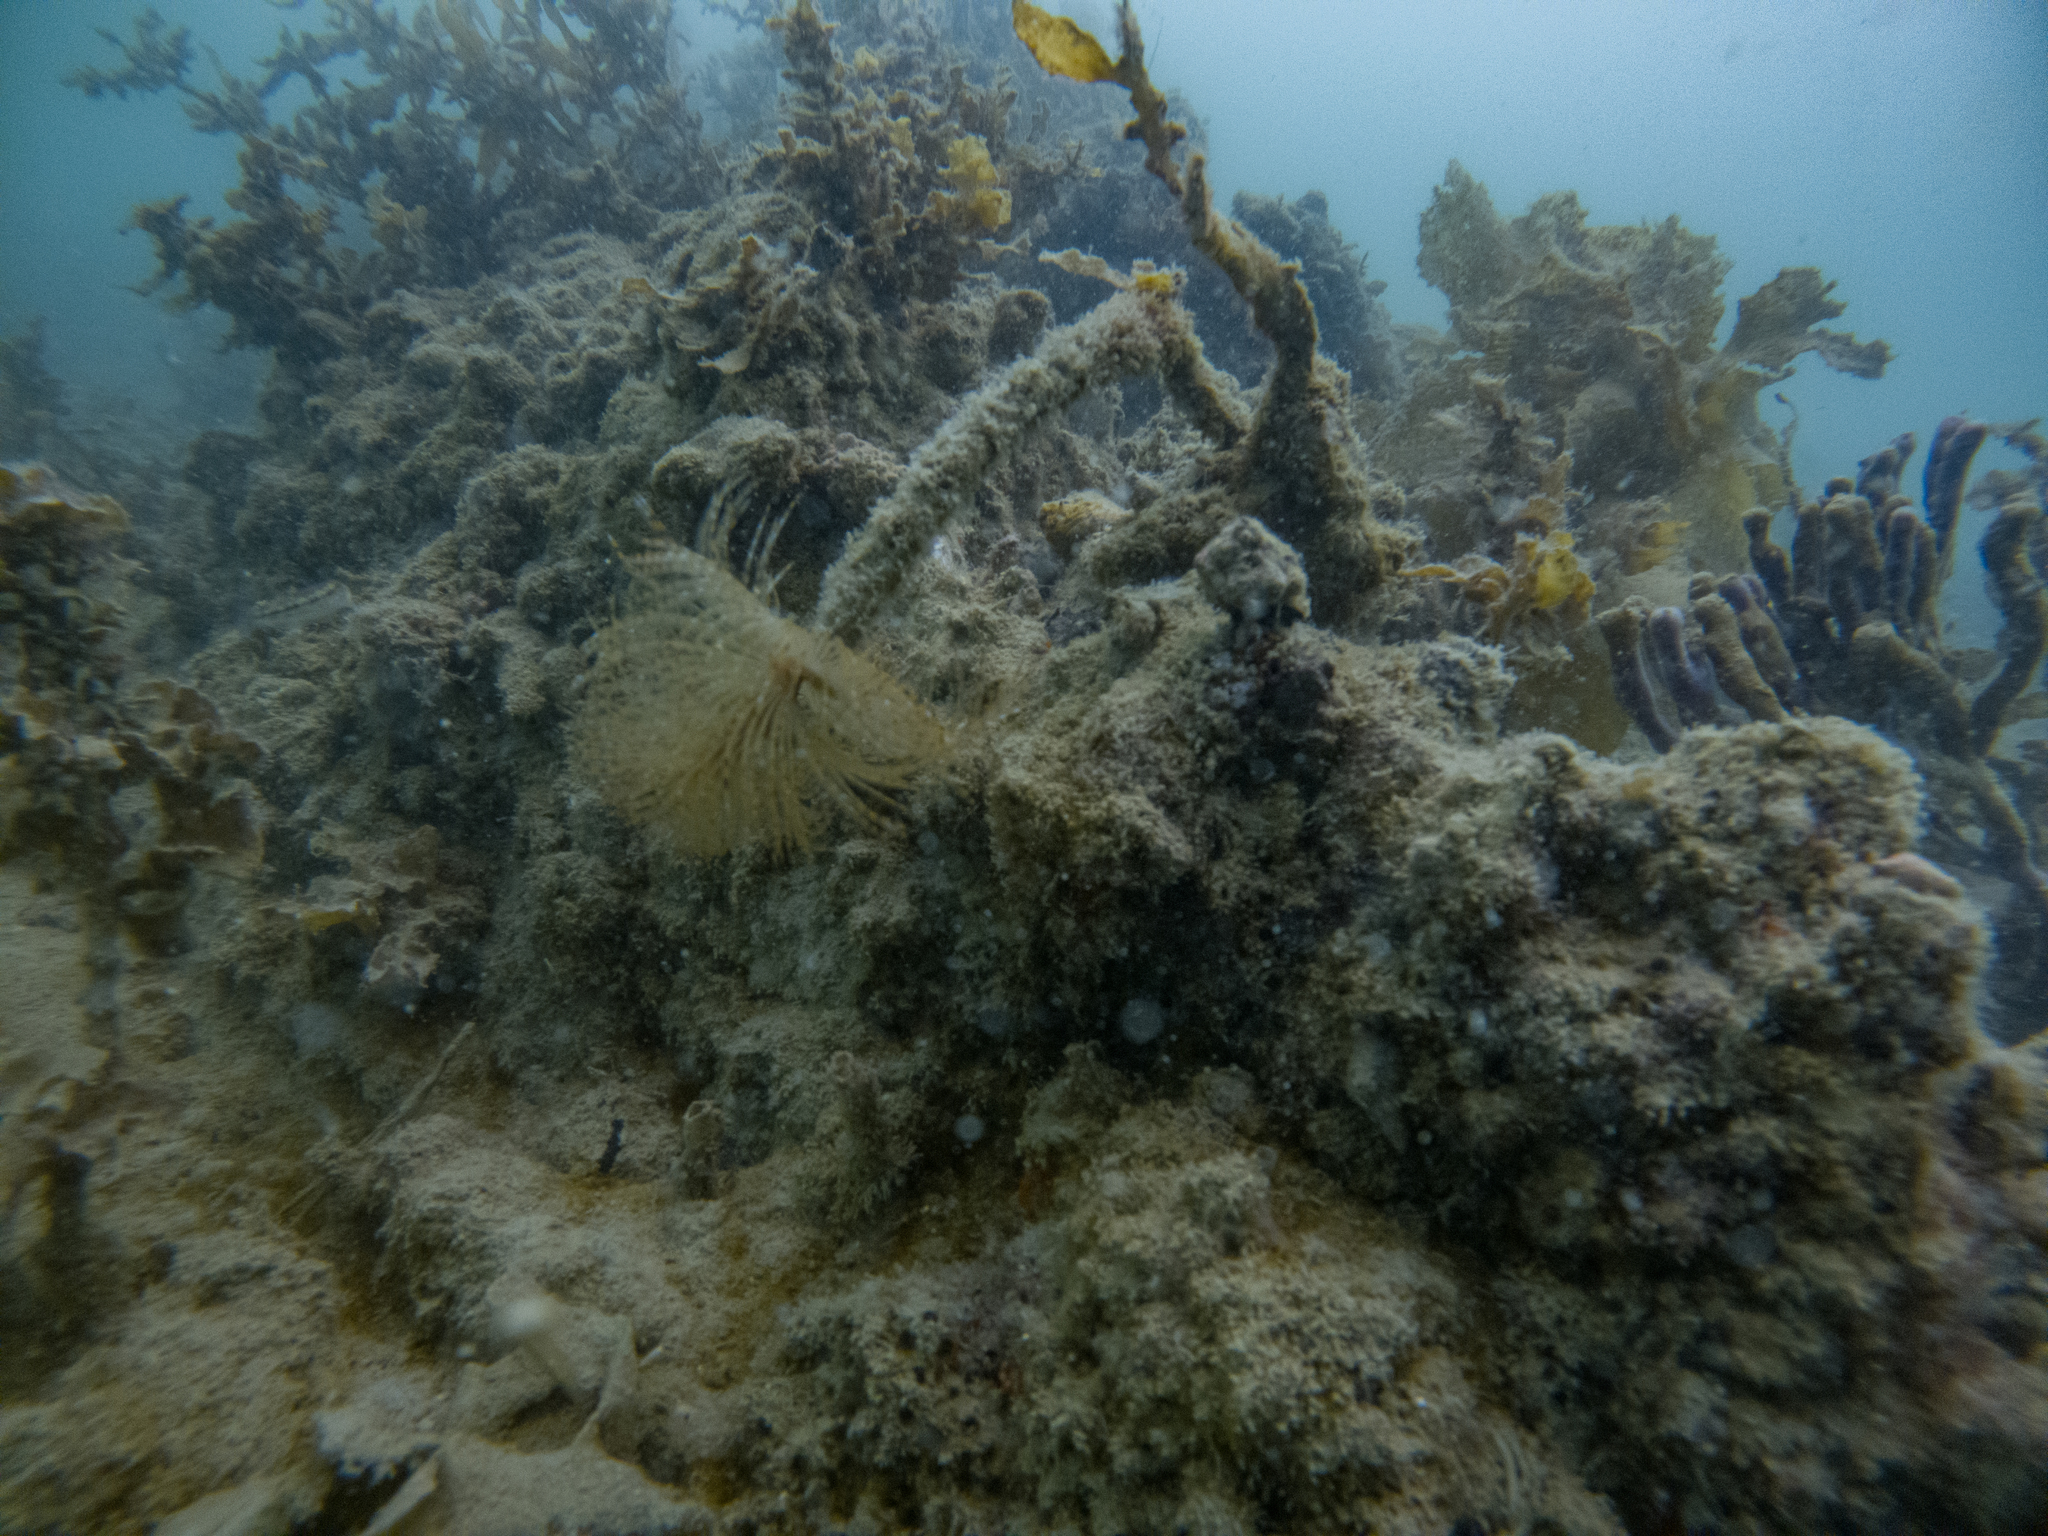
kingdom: Animalia
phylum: Annelida
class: Polychaeta
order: Sabellida
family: Sabellidae
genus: Sabella
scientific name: Sabella spallanzanii
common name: Feather duster worm
